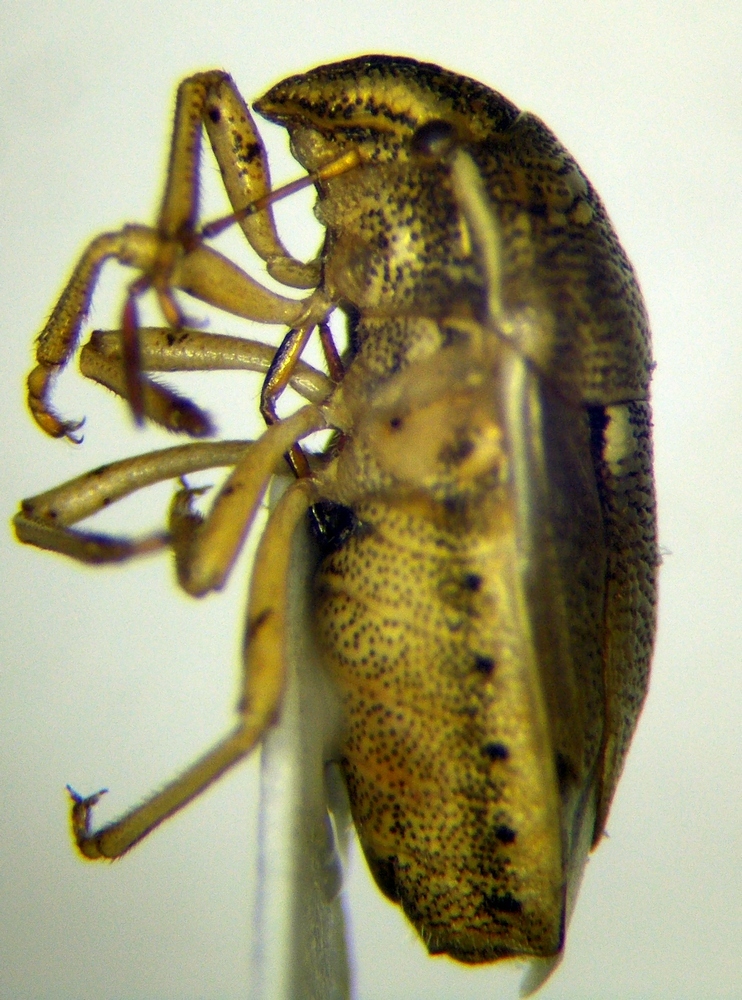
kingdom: Animalia
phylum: Arthropoda
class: Insecta
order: Hemiptera
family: Pentatomidae
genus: Neottiglossa
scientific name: Neottiglossa leporina
